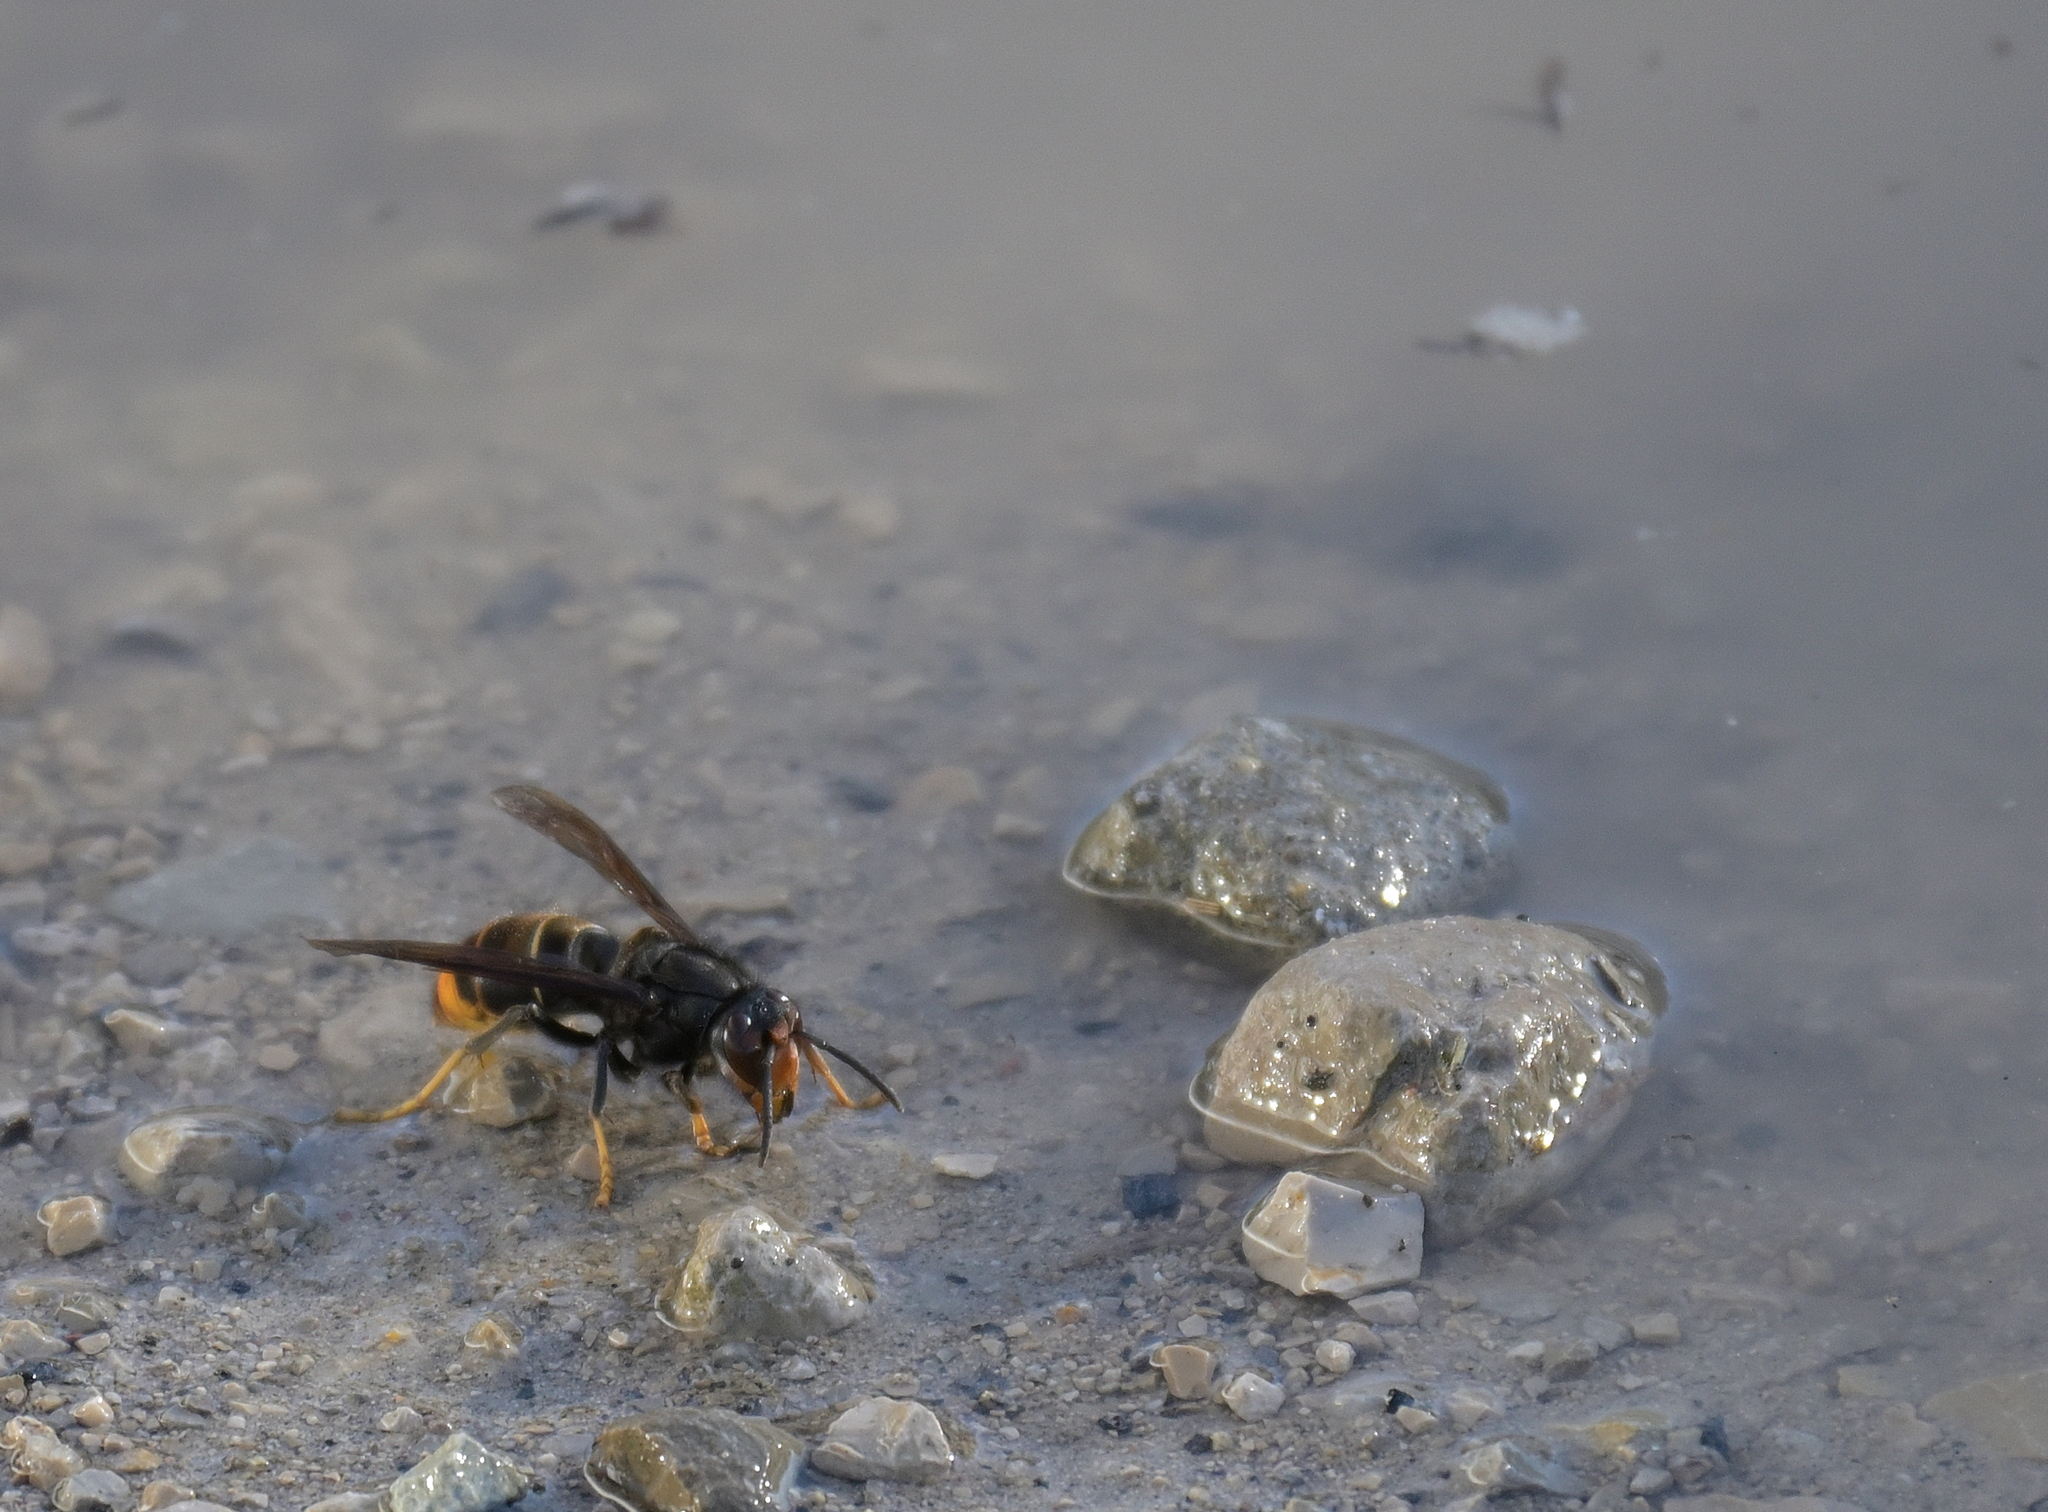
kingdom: Animalia
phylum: Arthropoda
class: Insecta
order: Hymenoptera
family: Vespidae
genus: Vespa
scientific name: Vespa velutina
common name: Asian hornet
